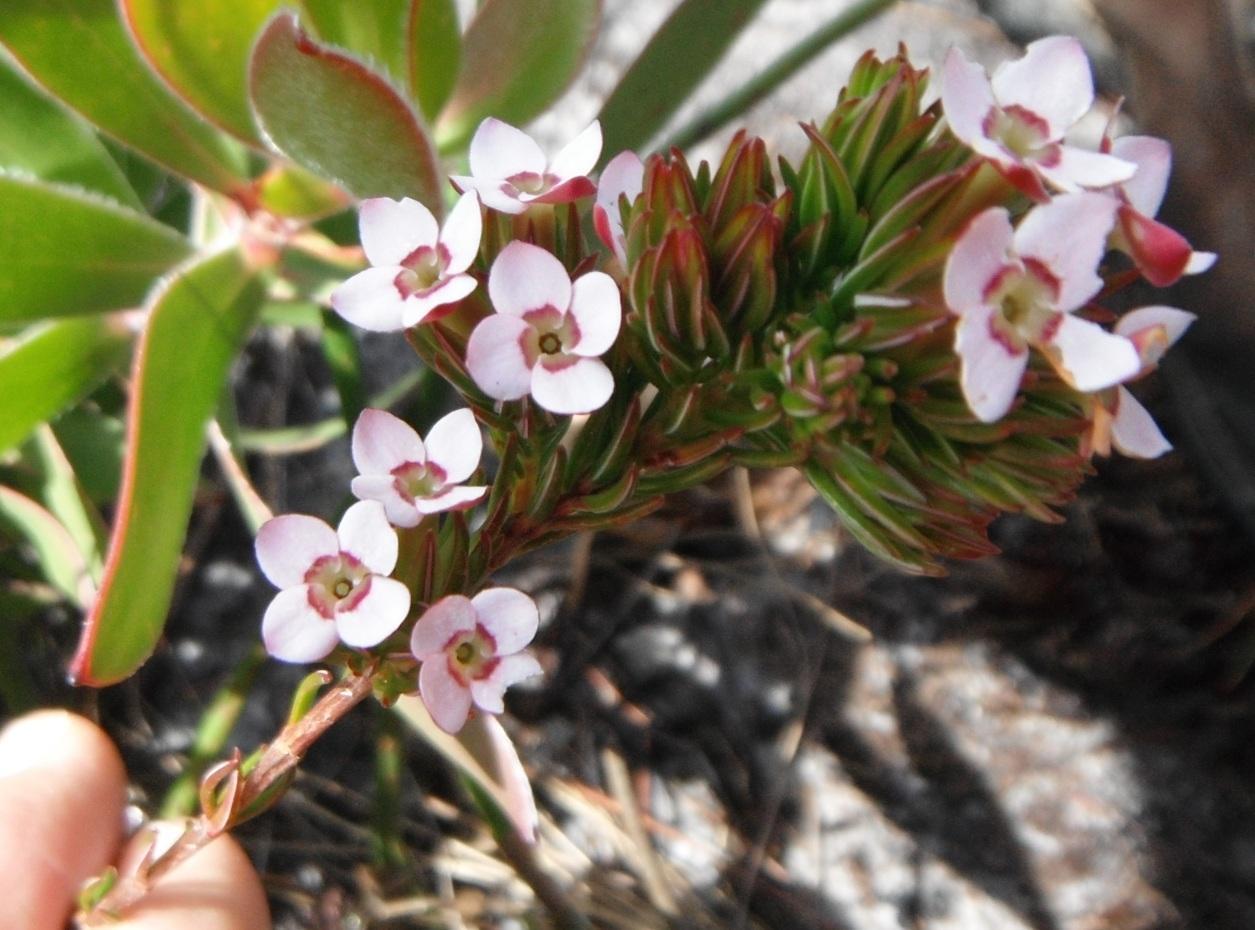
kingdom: Plantae
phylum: Tracheophyta
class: Magnoliopsida
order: Ericales
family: Ericaceae
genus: Erica
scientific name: Erica fastigiata
